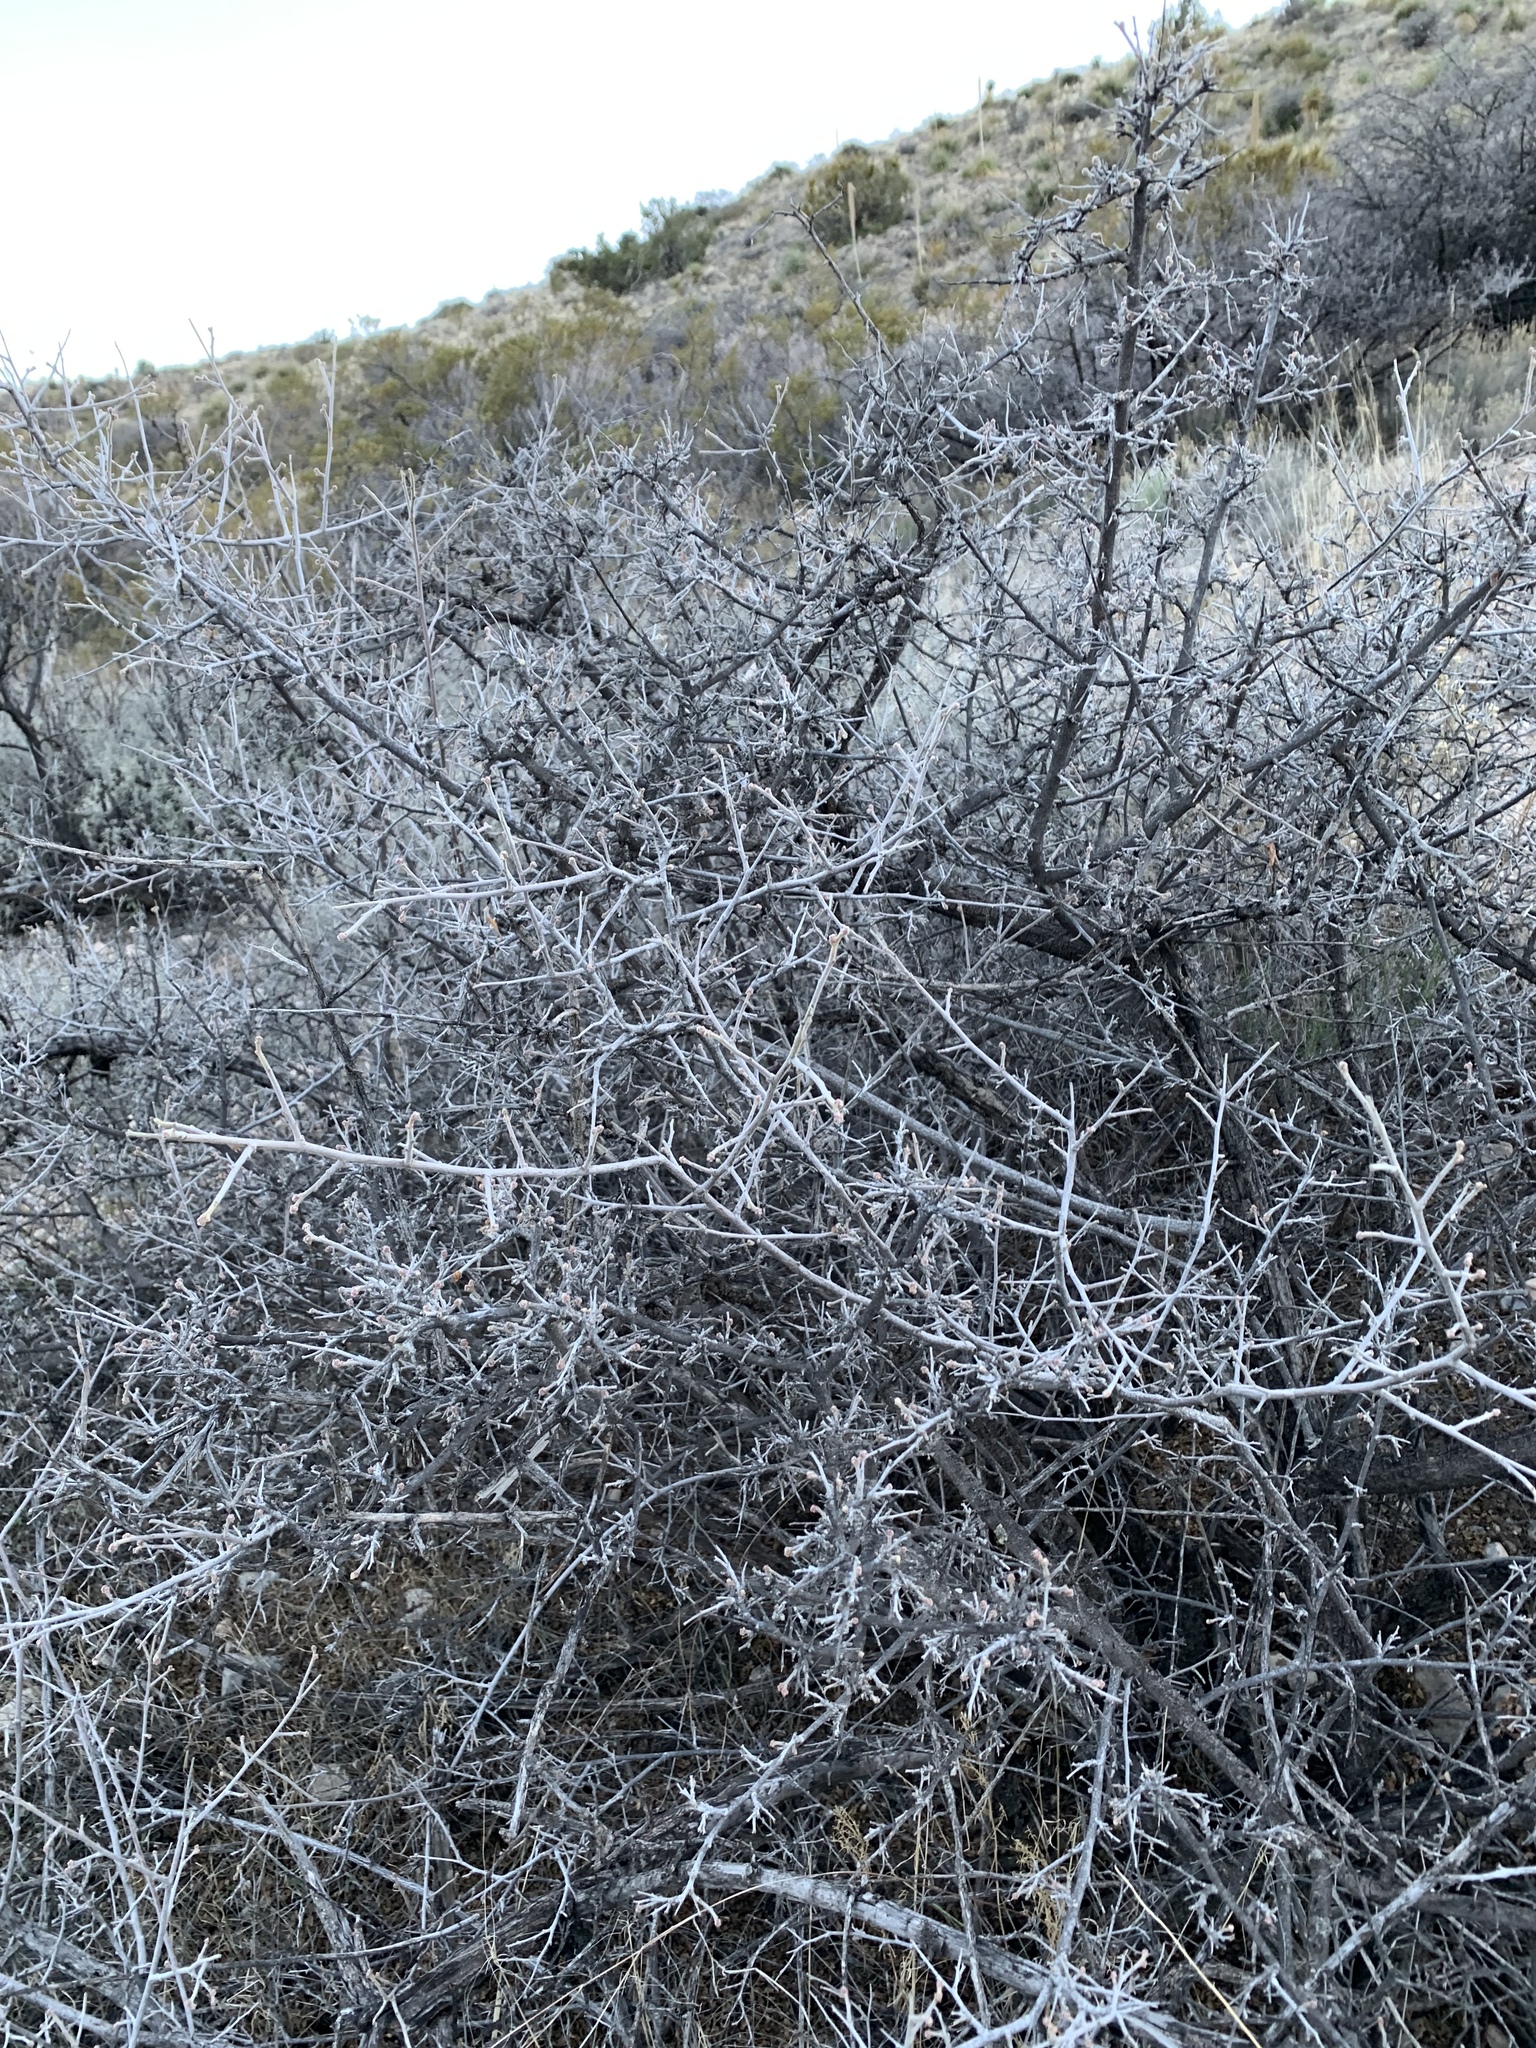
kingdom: Plantae
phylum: Tracheophyta
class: Magnoliopsida
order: Sapindales
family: Anacardiaceae
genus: Rhus
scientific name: Rhus microphylla
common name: Desert sumac
